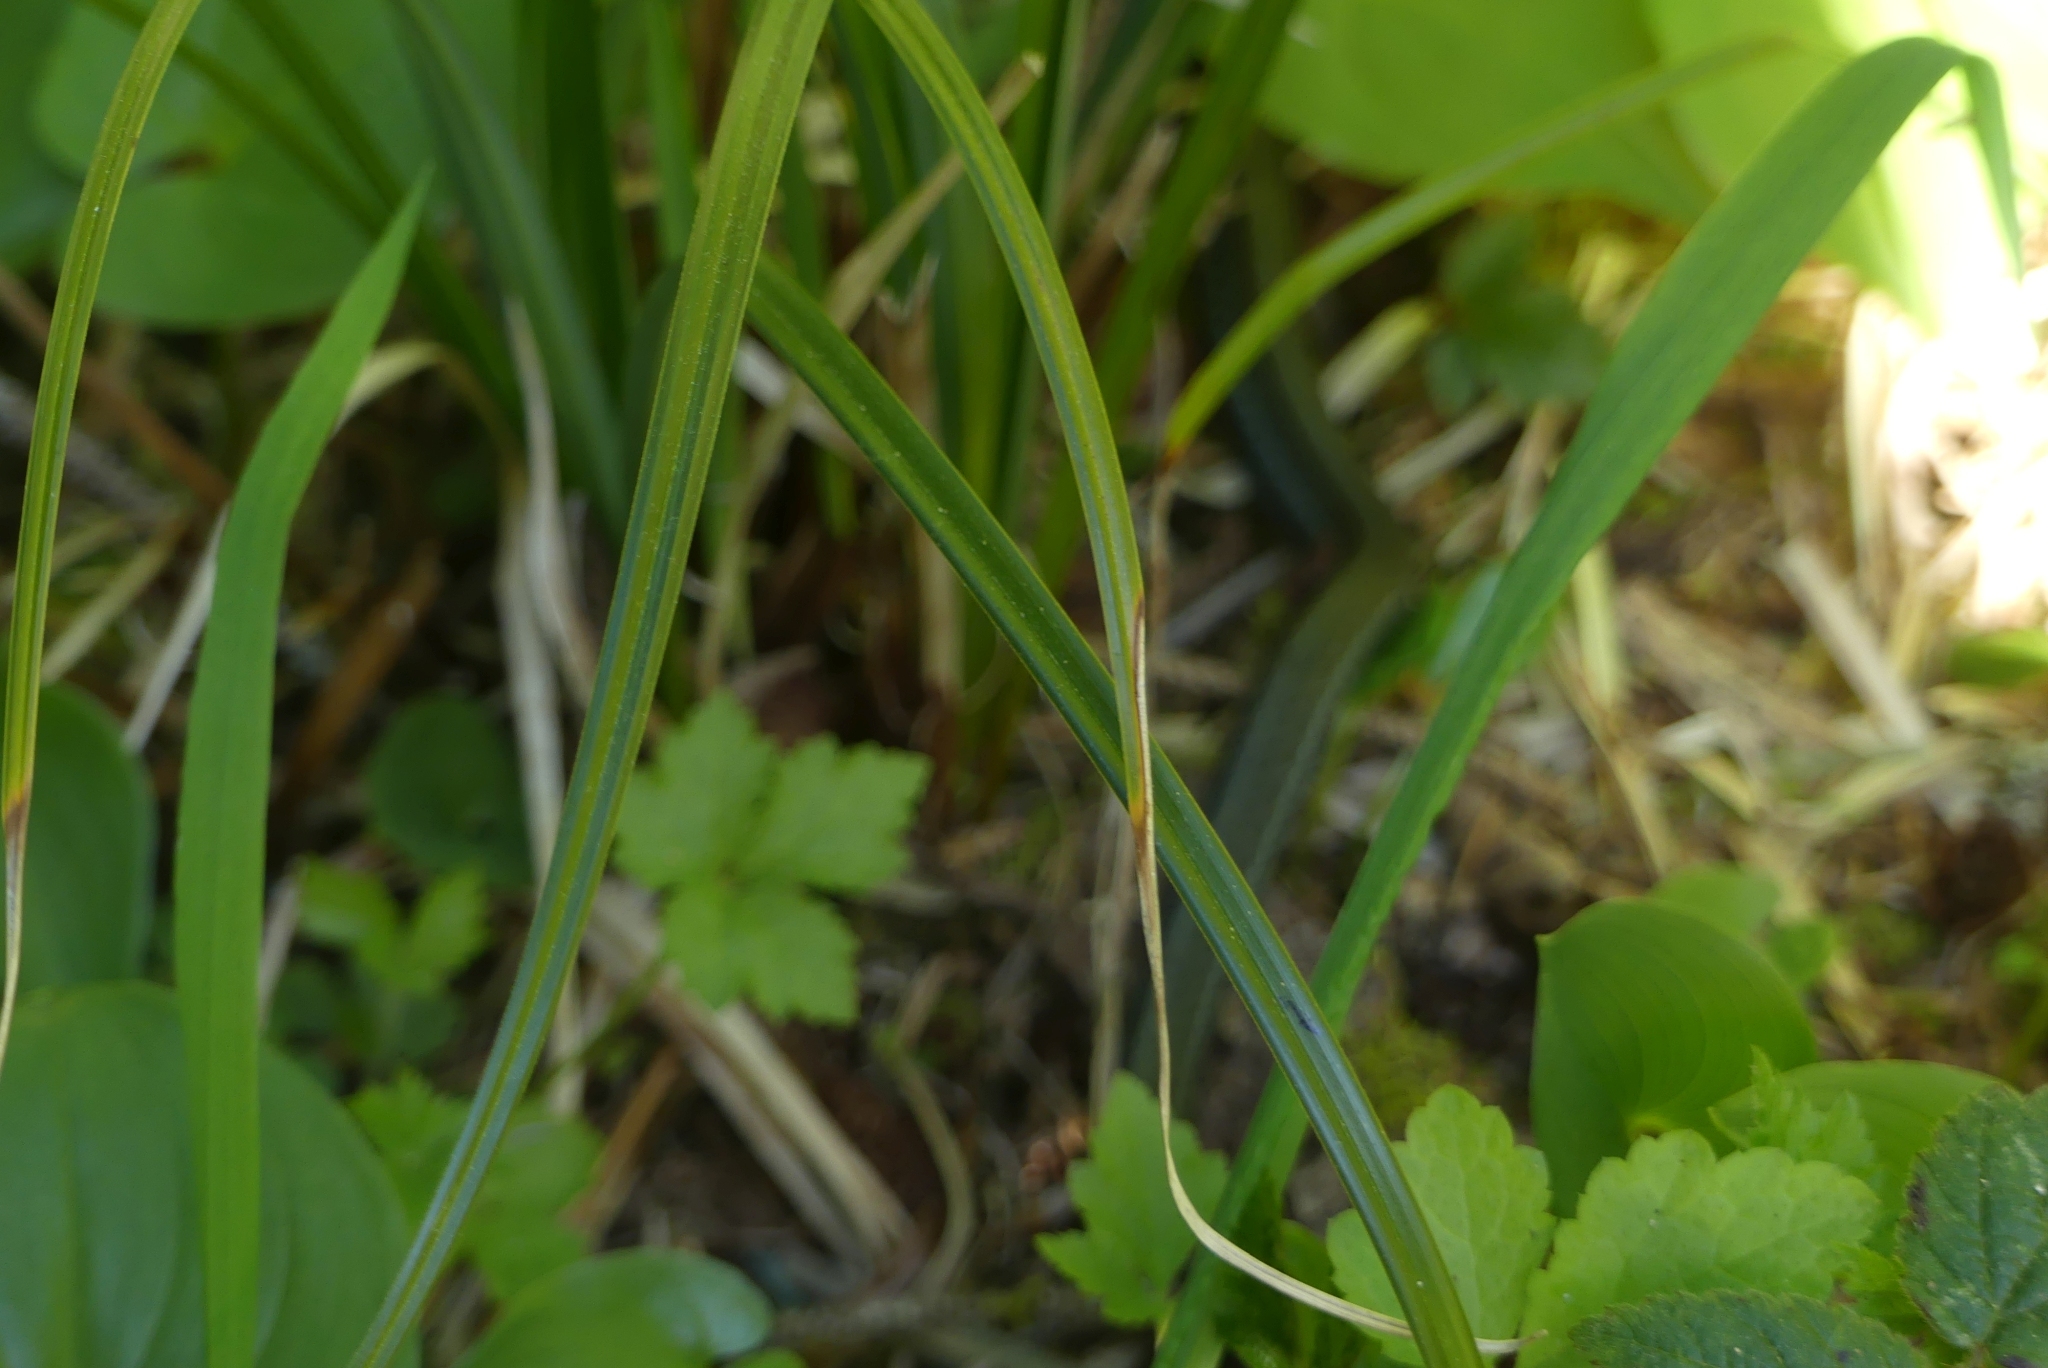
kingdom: Animalia
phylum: Chordata
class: Squamata
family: Colubridae
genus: Thamnophis
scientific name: Thamnophis ordinoides
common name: Northwestern garter snake
